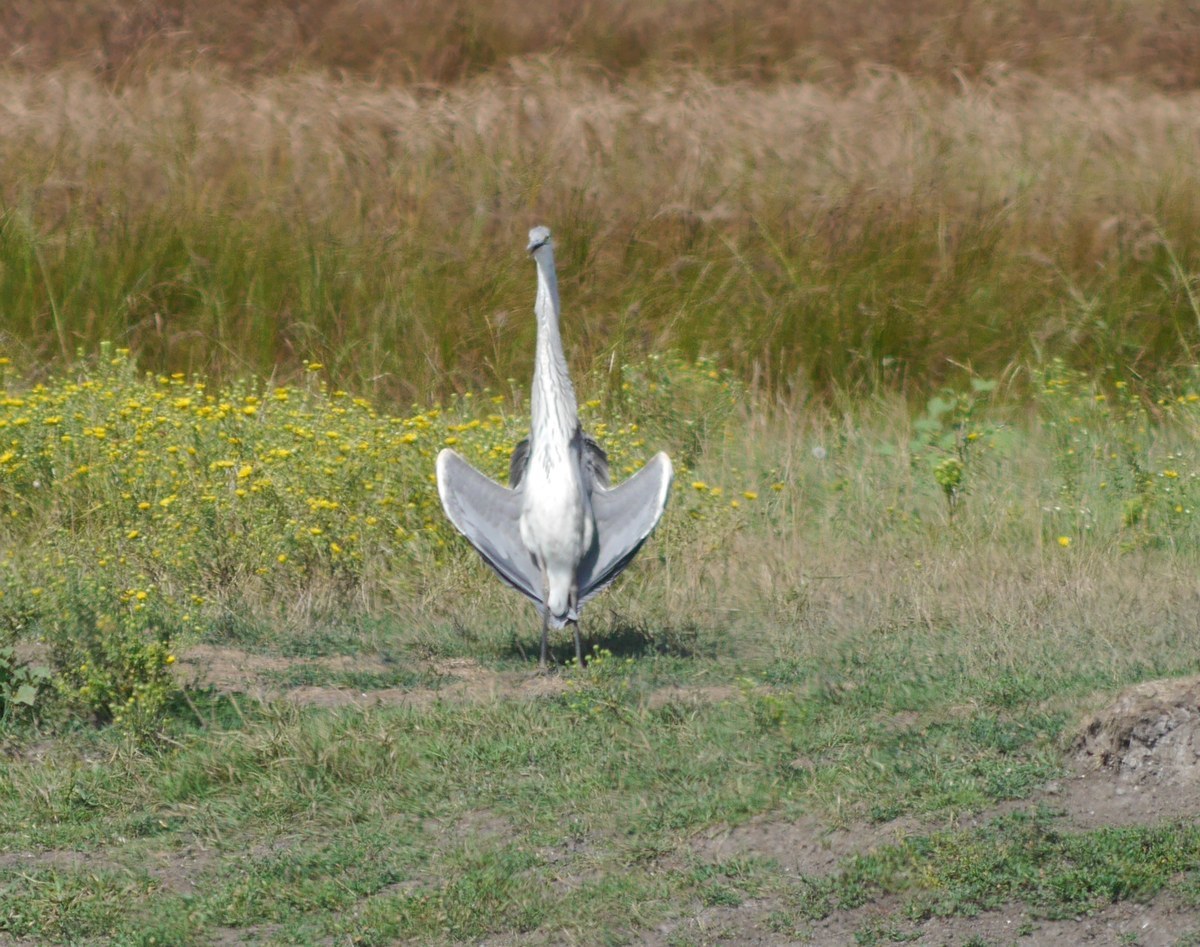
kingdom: Animalia
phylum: Chordata
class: Aves
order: Pelecaniformes
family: Ardeidae
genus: Ardea
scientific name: Ardea cinerea
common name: Grey heron
